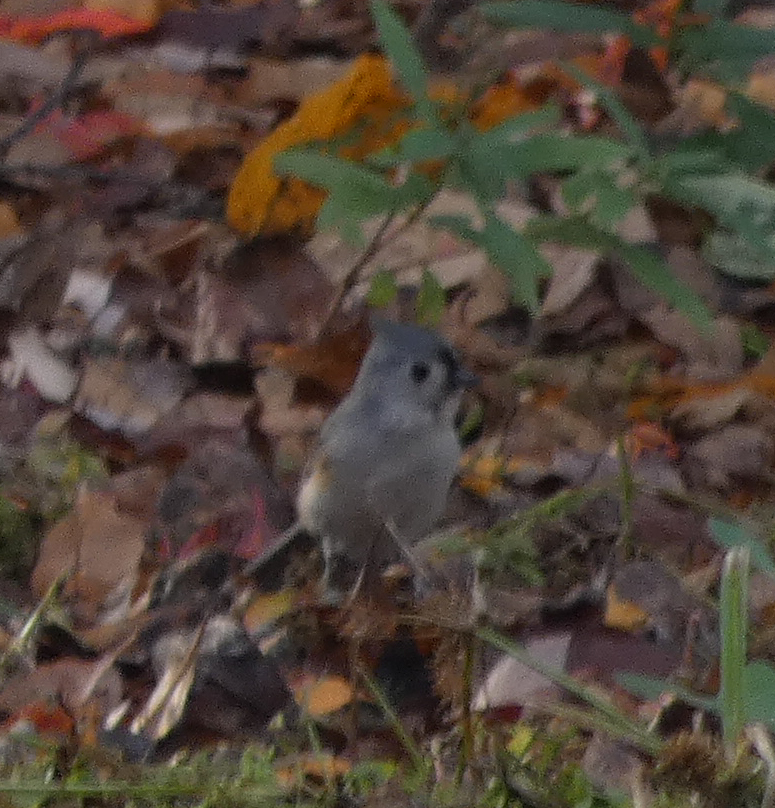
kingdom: Animalia
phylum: Chordata
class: Aves
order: Passeriformes
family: Paridae
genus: Baeolophus
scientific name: Baeolophus bicolor
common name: Tufted titmouse
